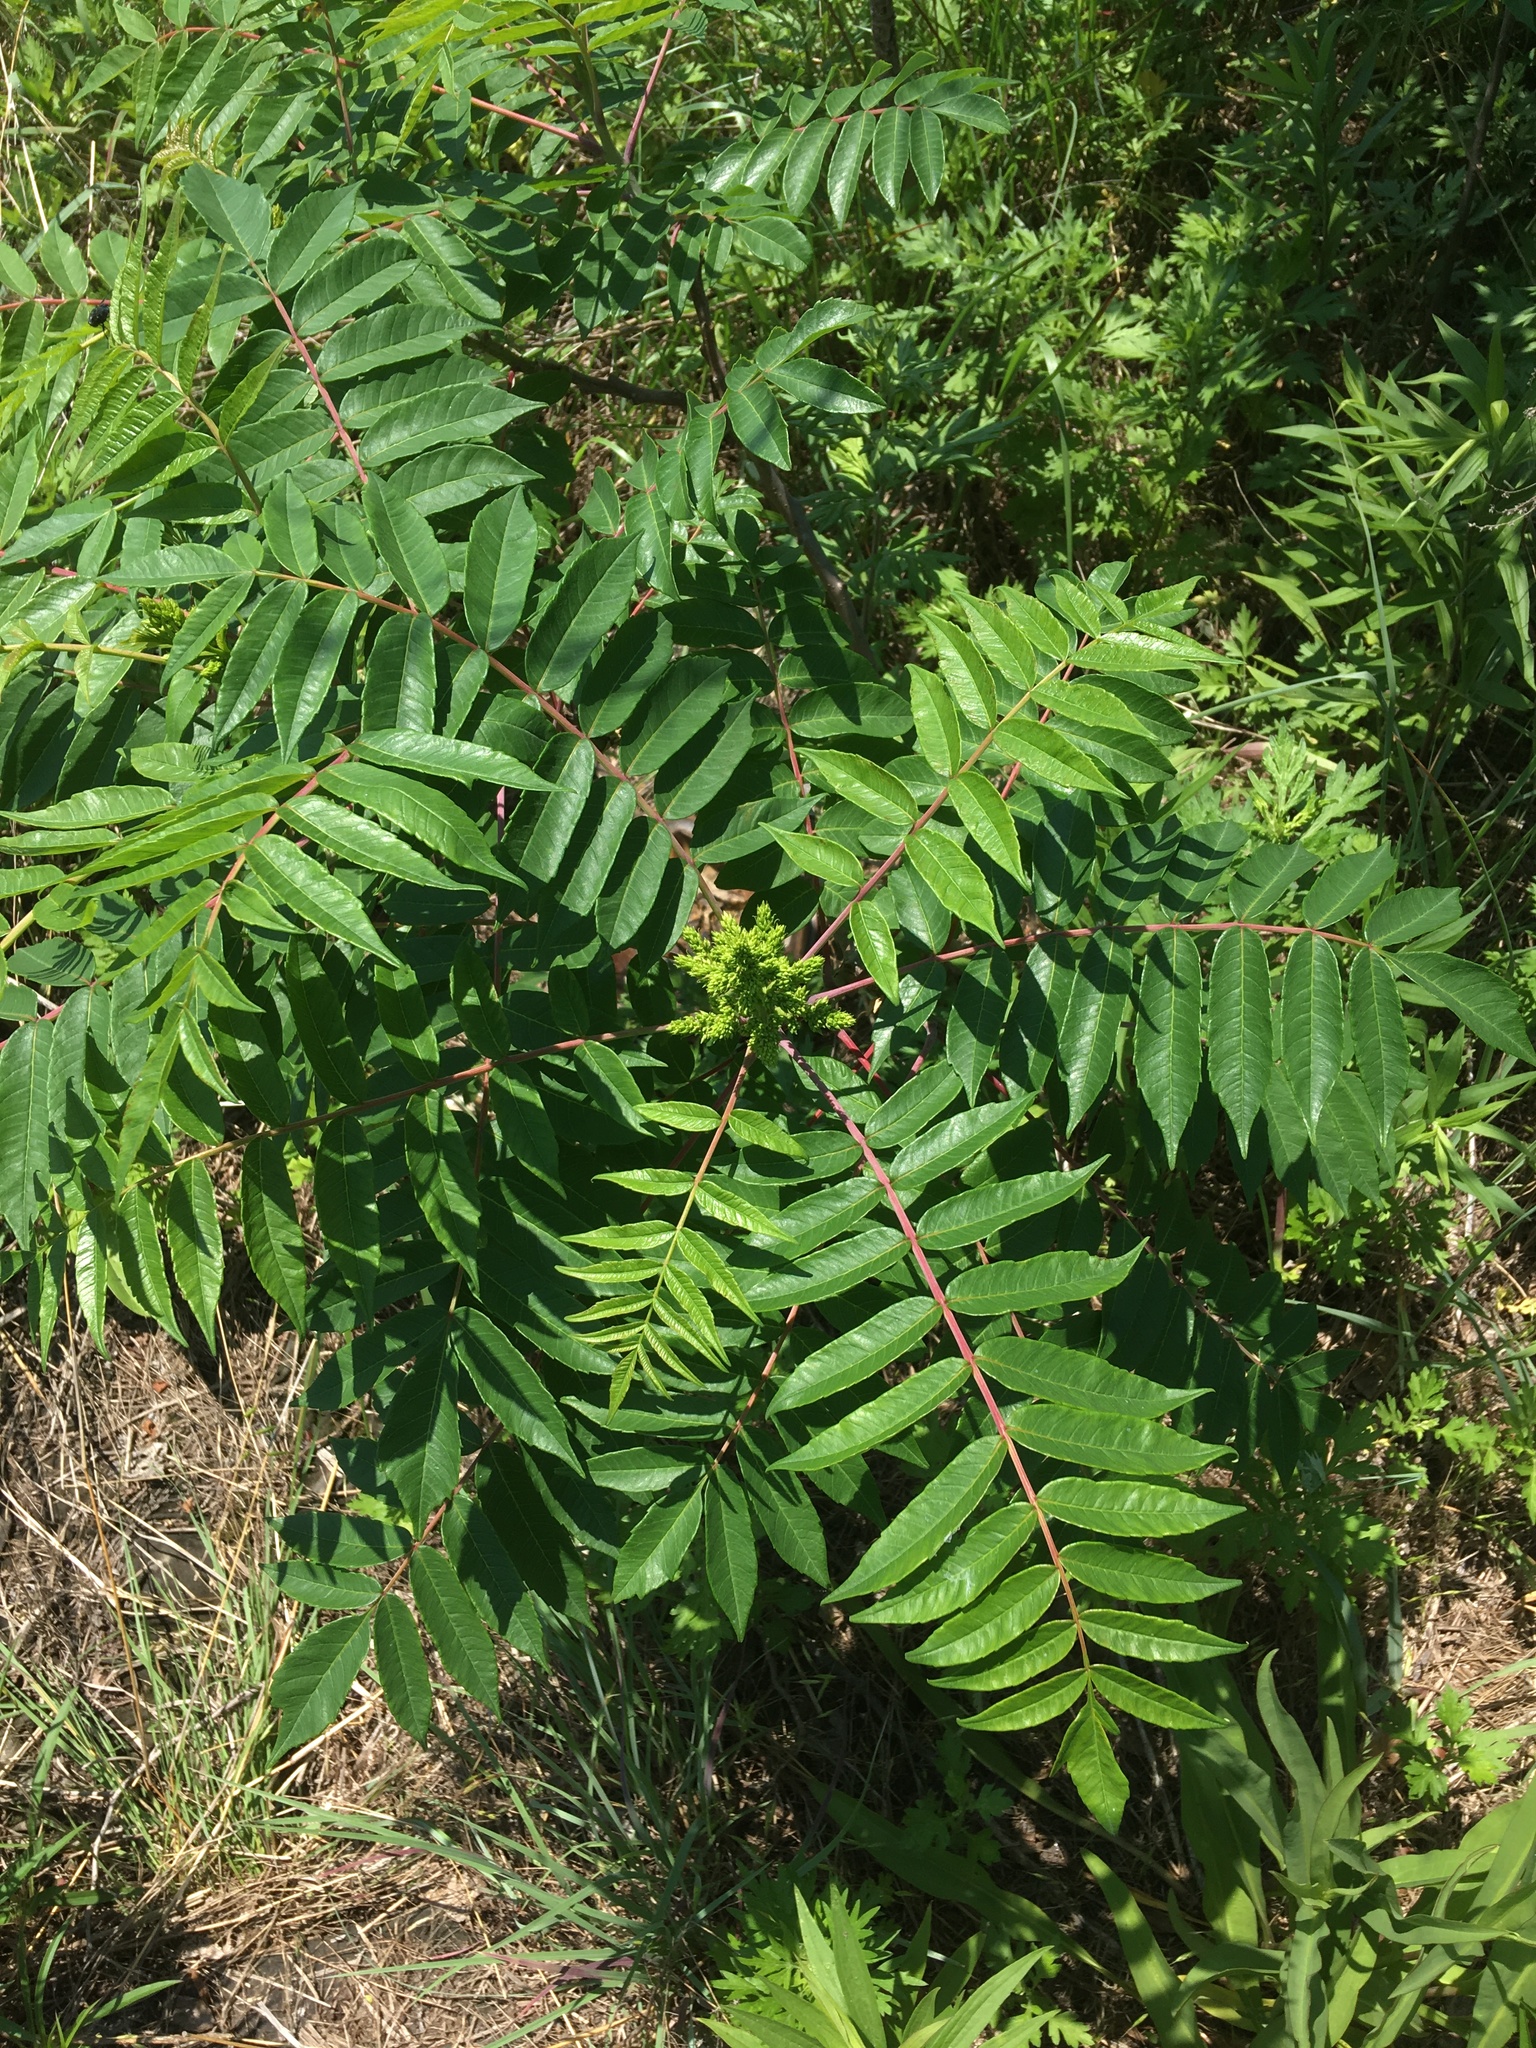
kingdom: Plantae
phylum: Tracheophyta
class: Magnoliopsida
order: Sapindales
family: Anacardiaceae
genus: Rhus
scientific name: Rhus glabra
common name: Scarlet sumac
